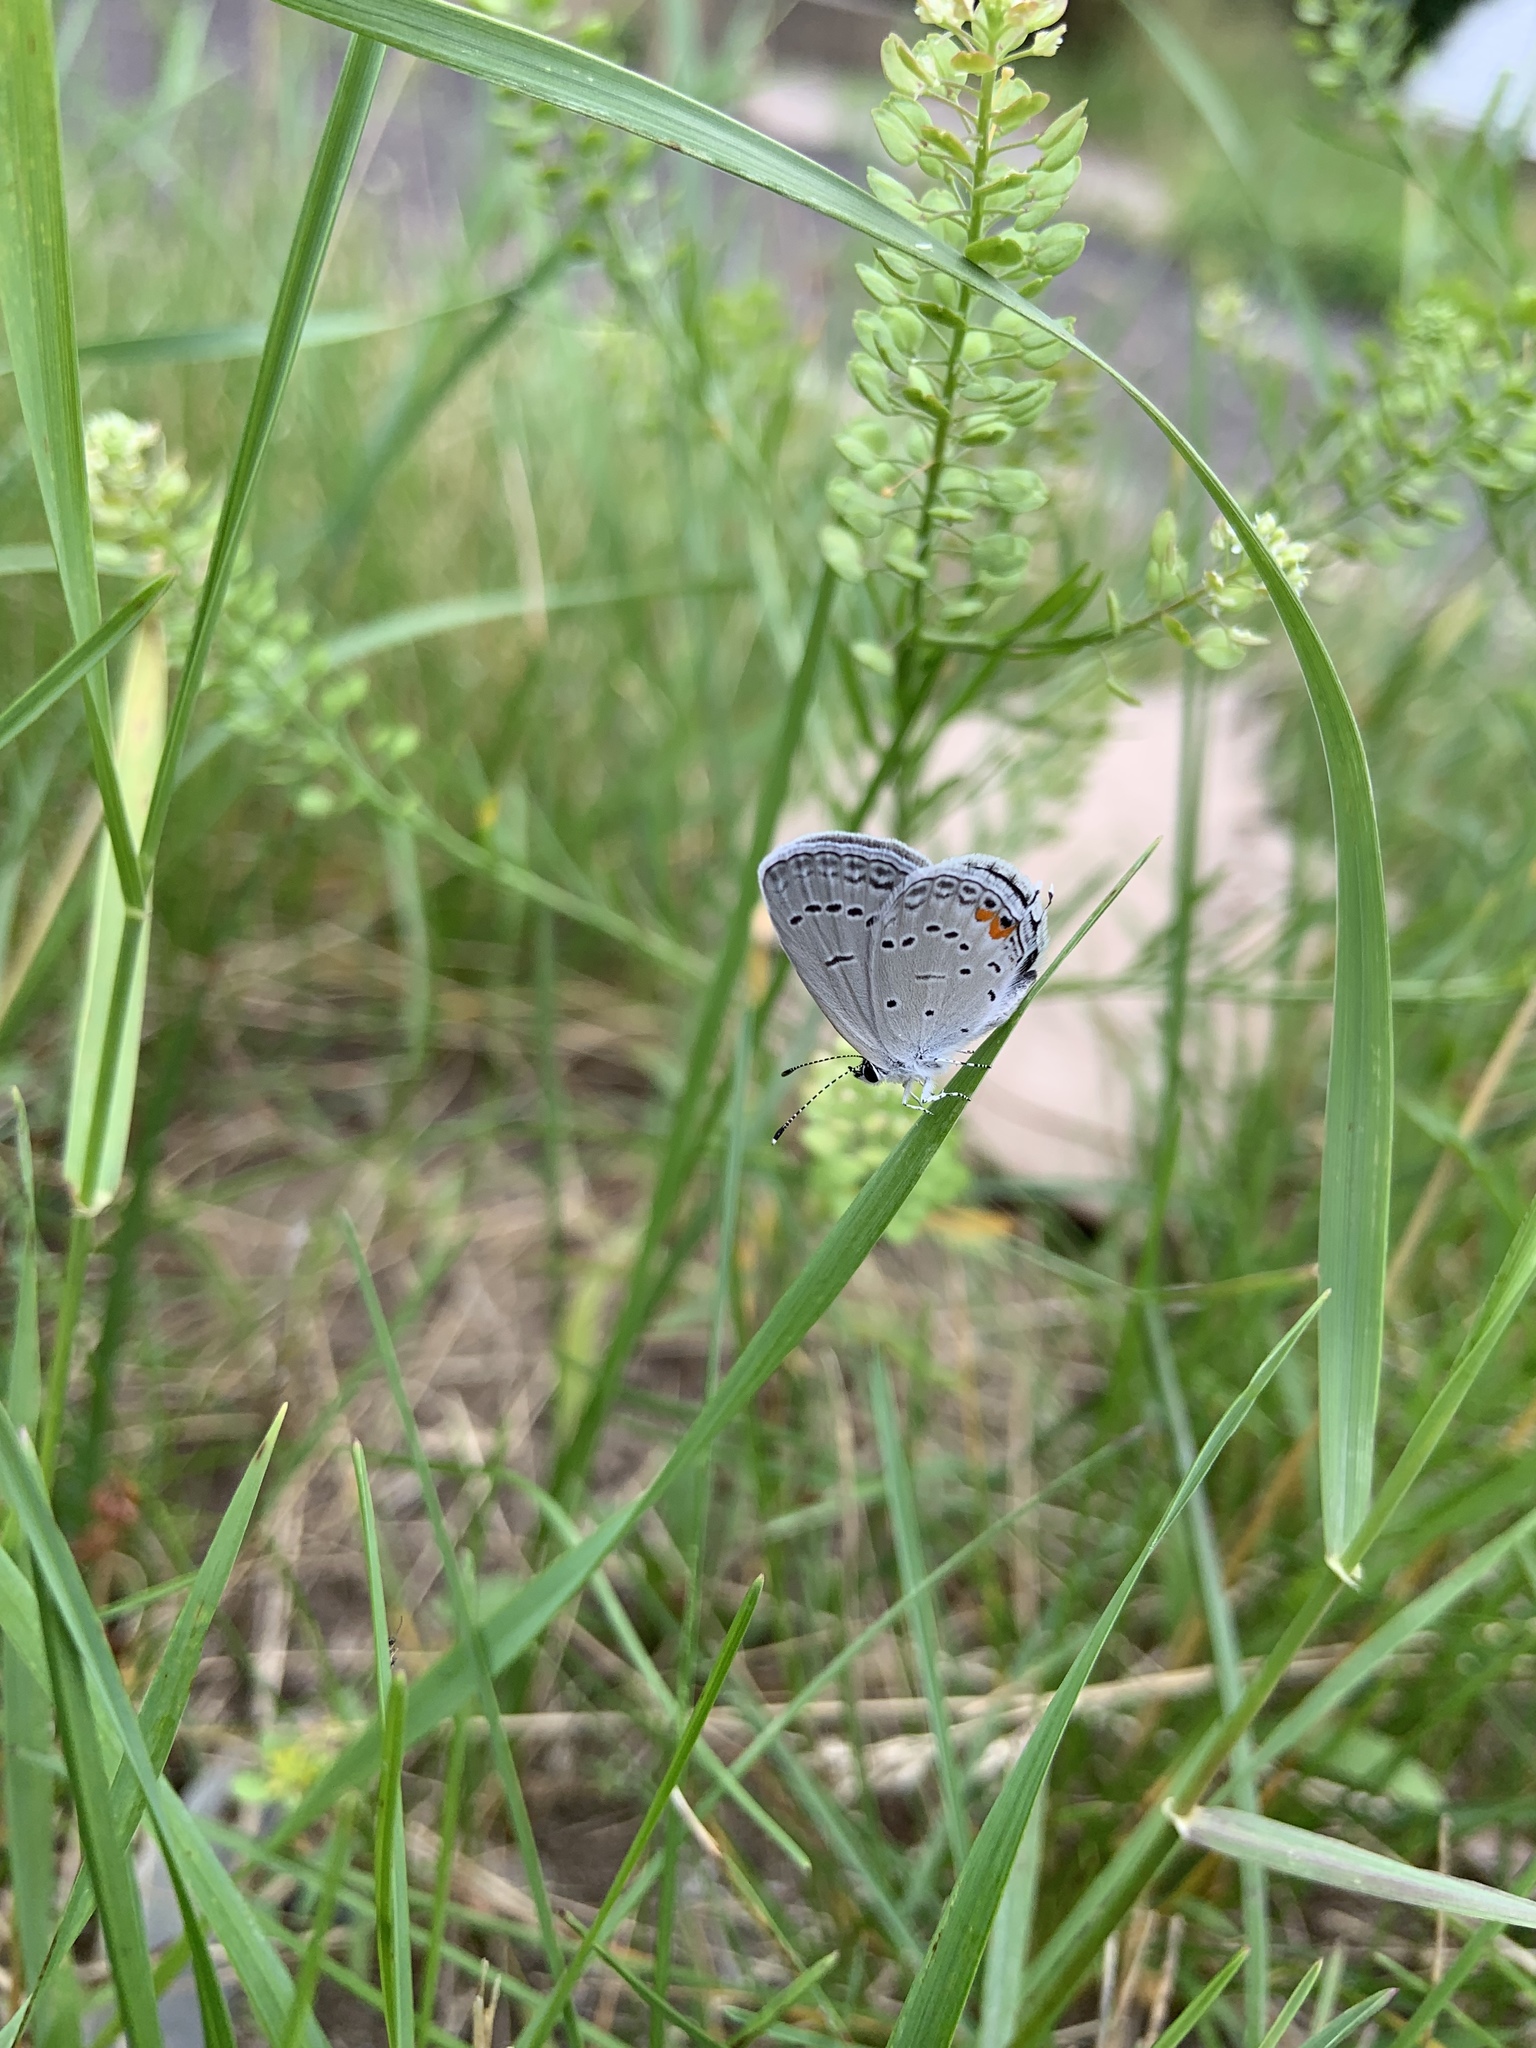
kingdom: Animalia
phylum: Arthropoda
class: Insecta
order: Lepidoptera
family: Lycaenidae
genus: Elkalyce
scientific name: Elkalyce comyntas
